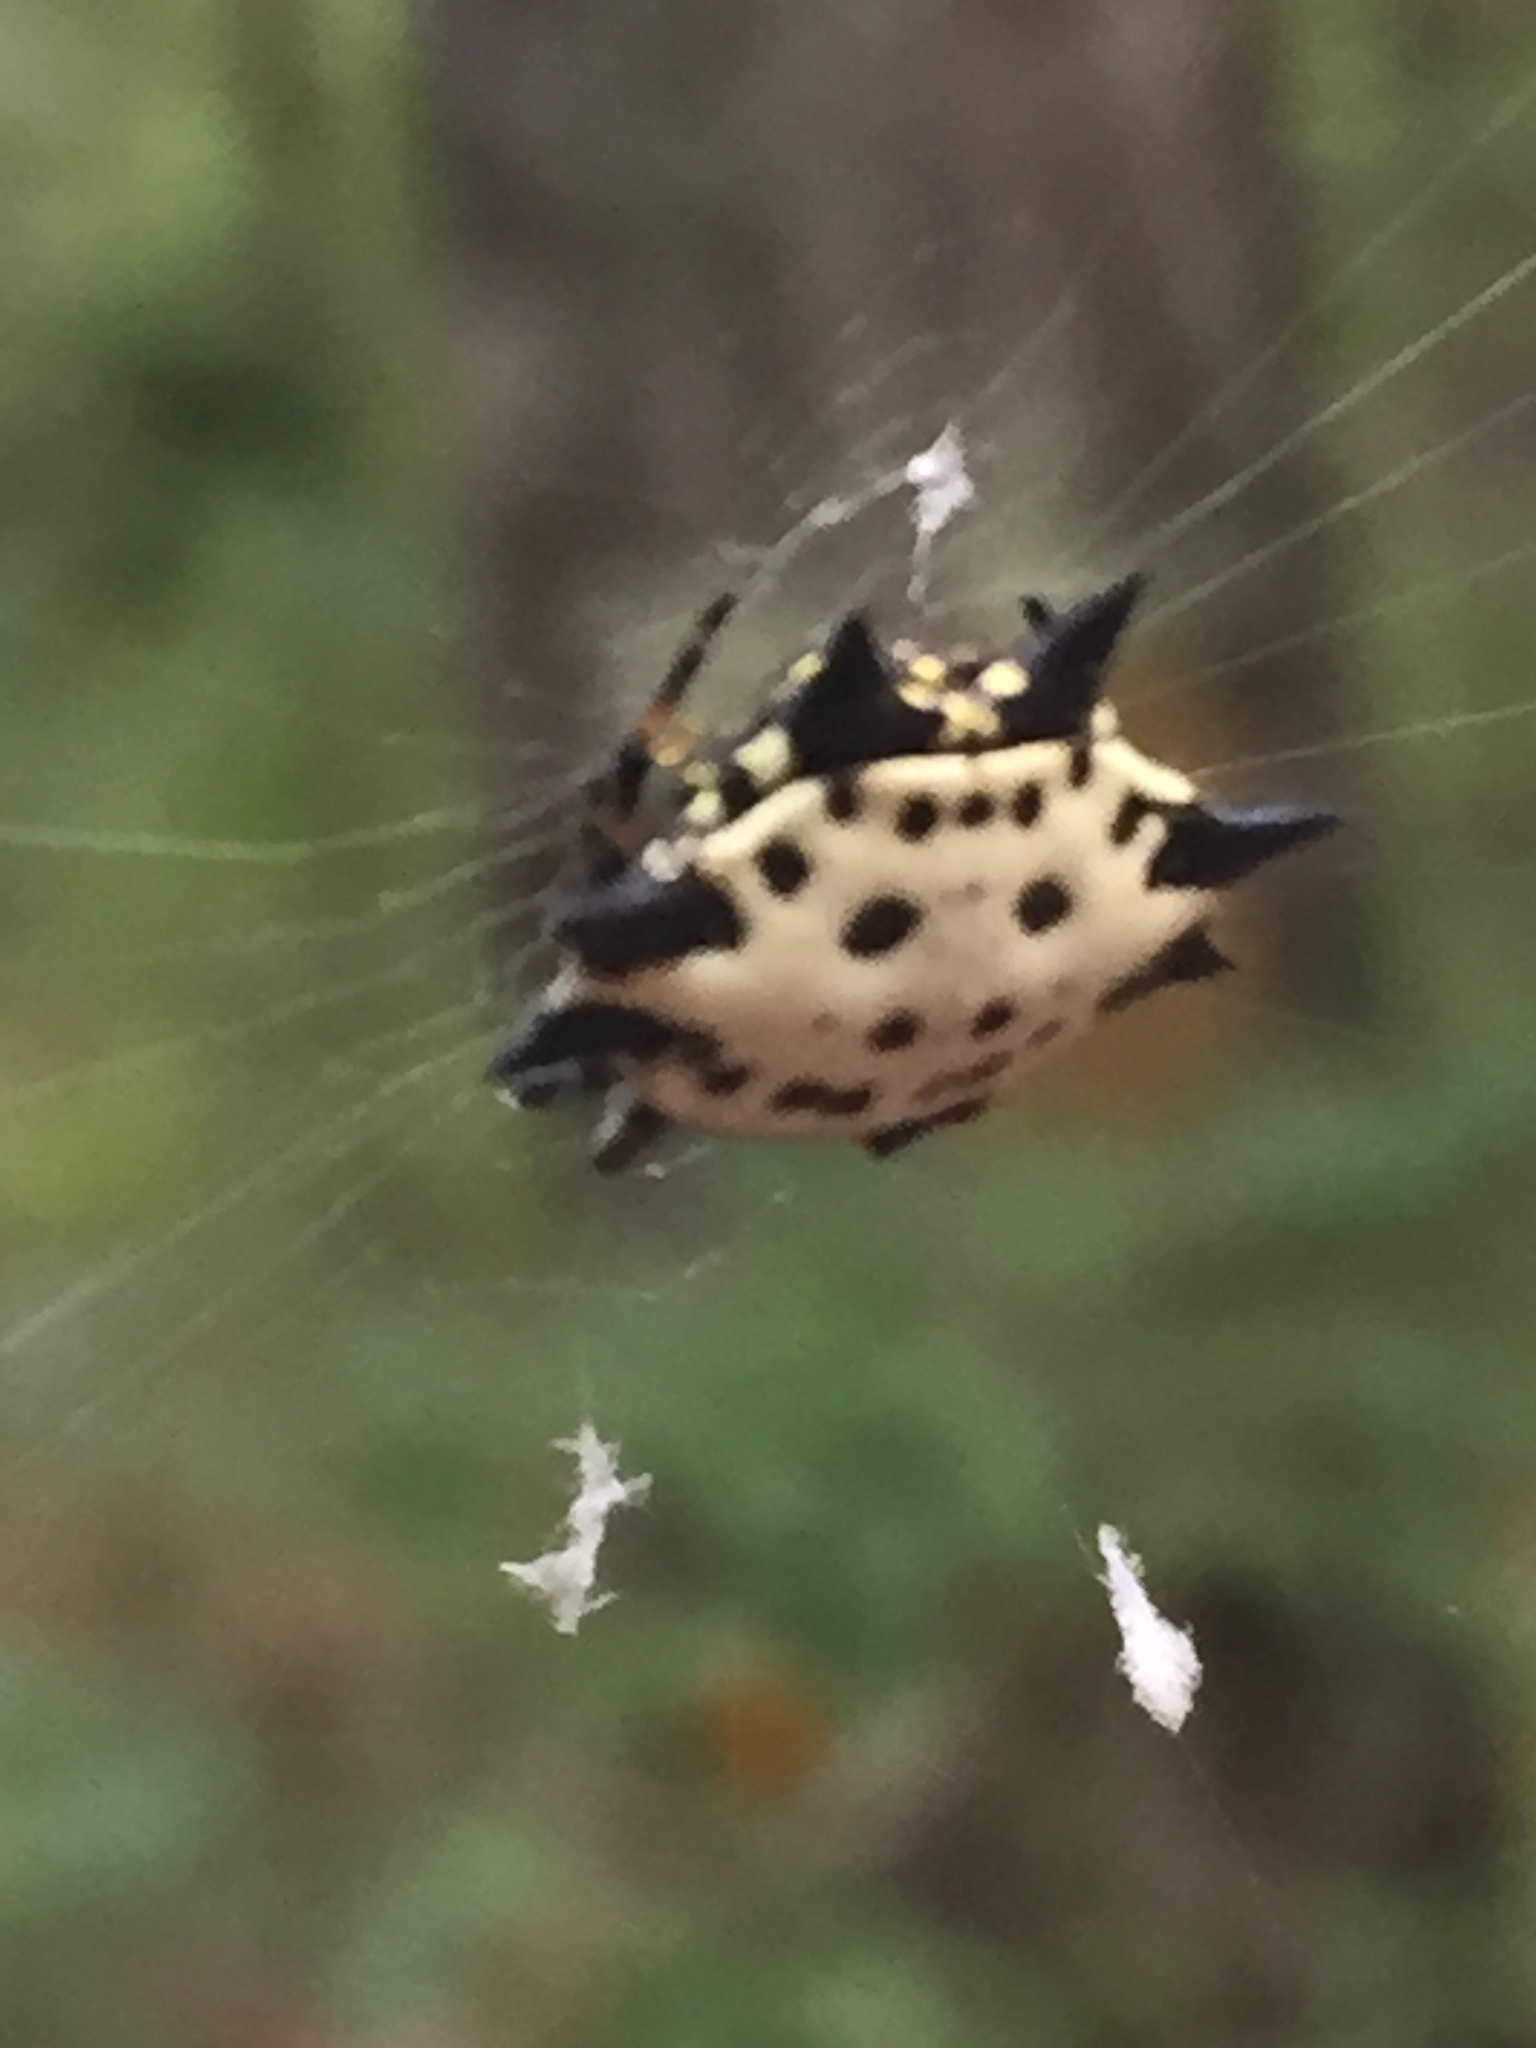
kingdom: Animalia
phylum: Arthropoda
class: Arachnida
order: Araneae
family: Araneidae
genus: Gasteracantha
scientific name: Gasteracantha cancriformis
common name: Orb weavers
